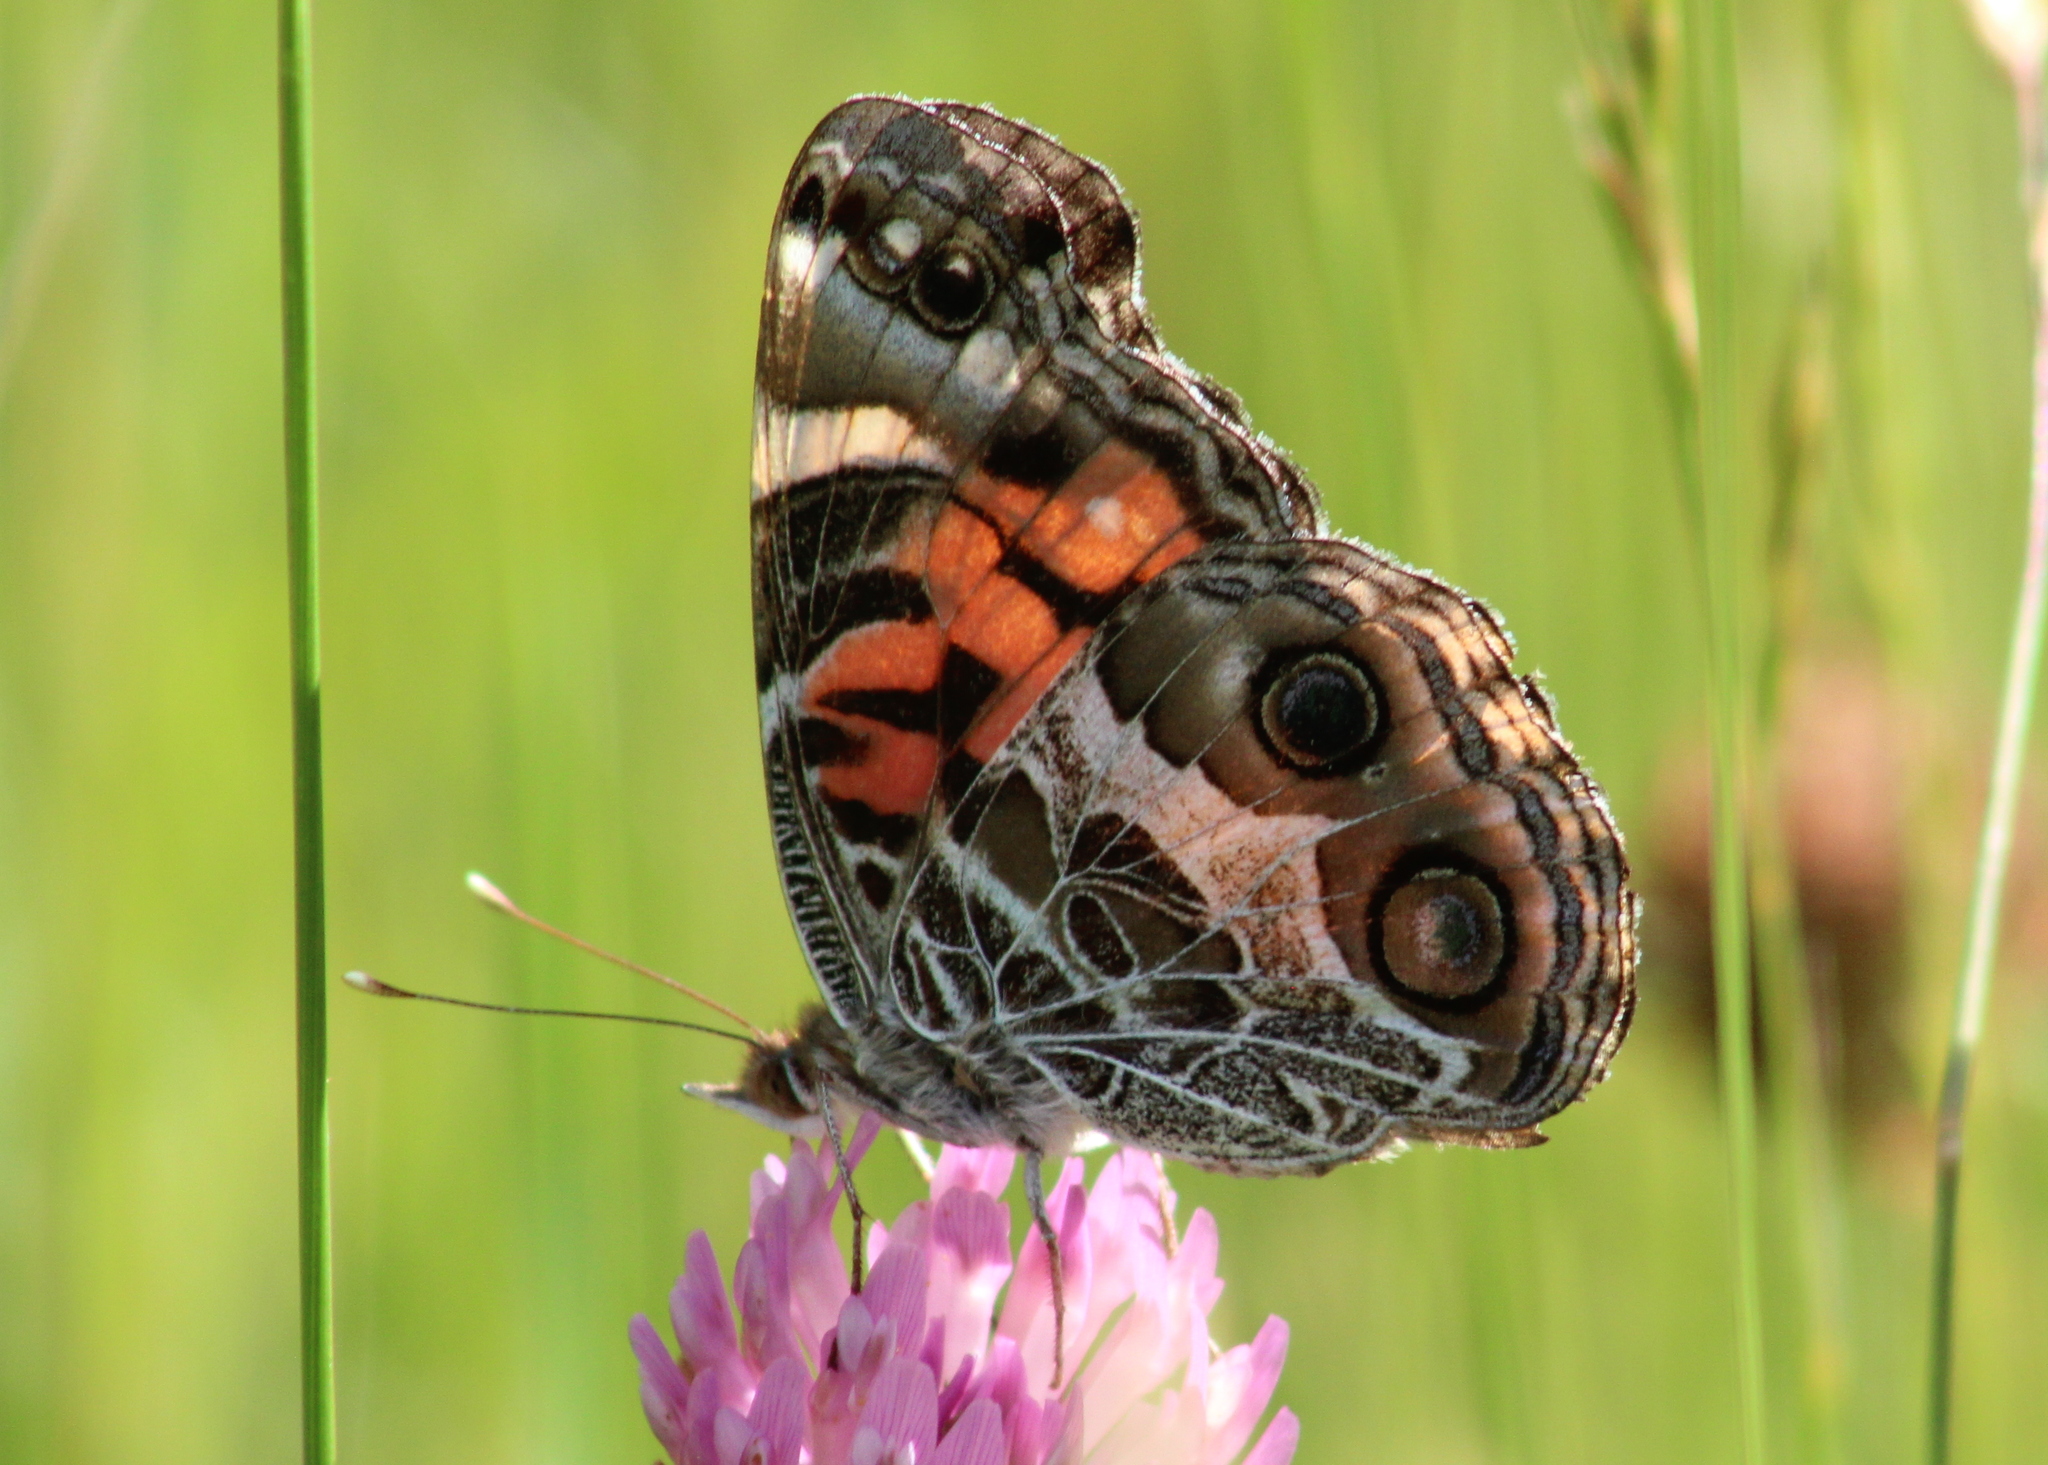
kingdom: Animalia
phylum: Arthropoda
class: Insecta
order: Lepidoptera
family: Nymphalidae
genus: Vanessa
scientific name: Vanessa virginiensis
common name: American lady
